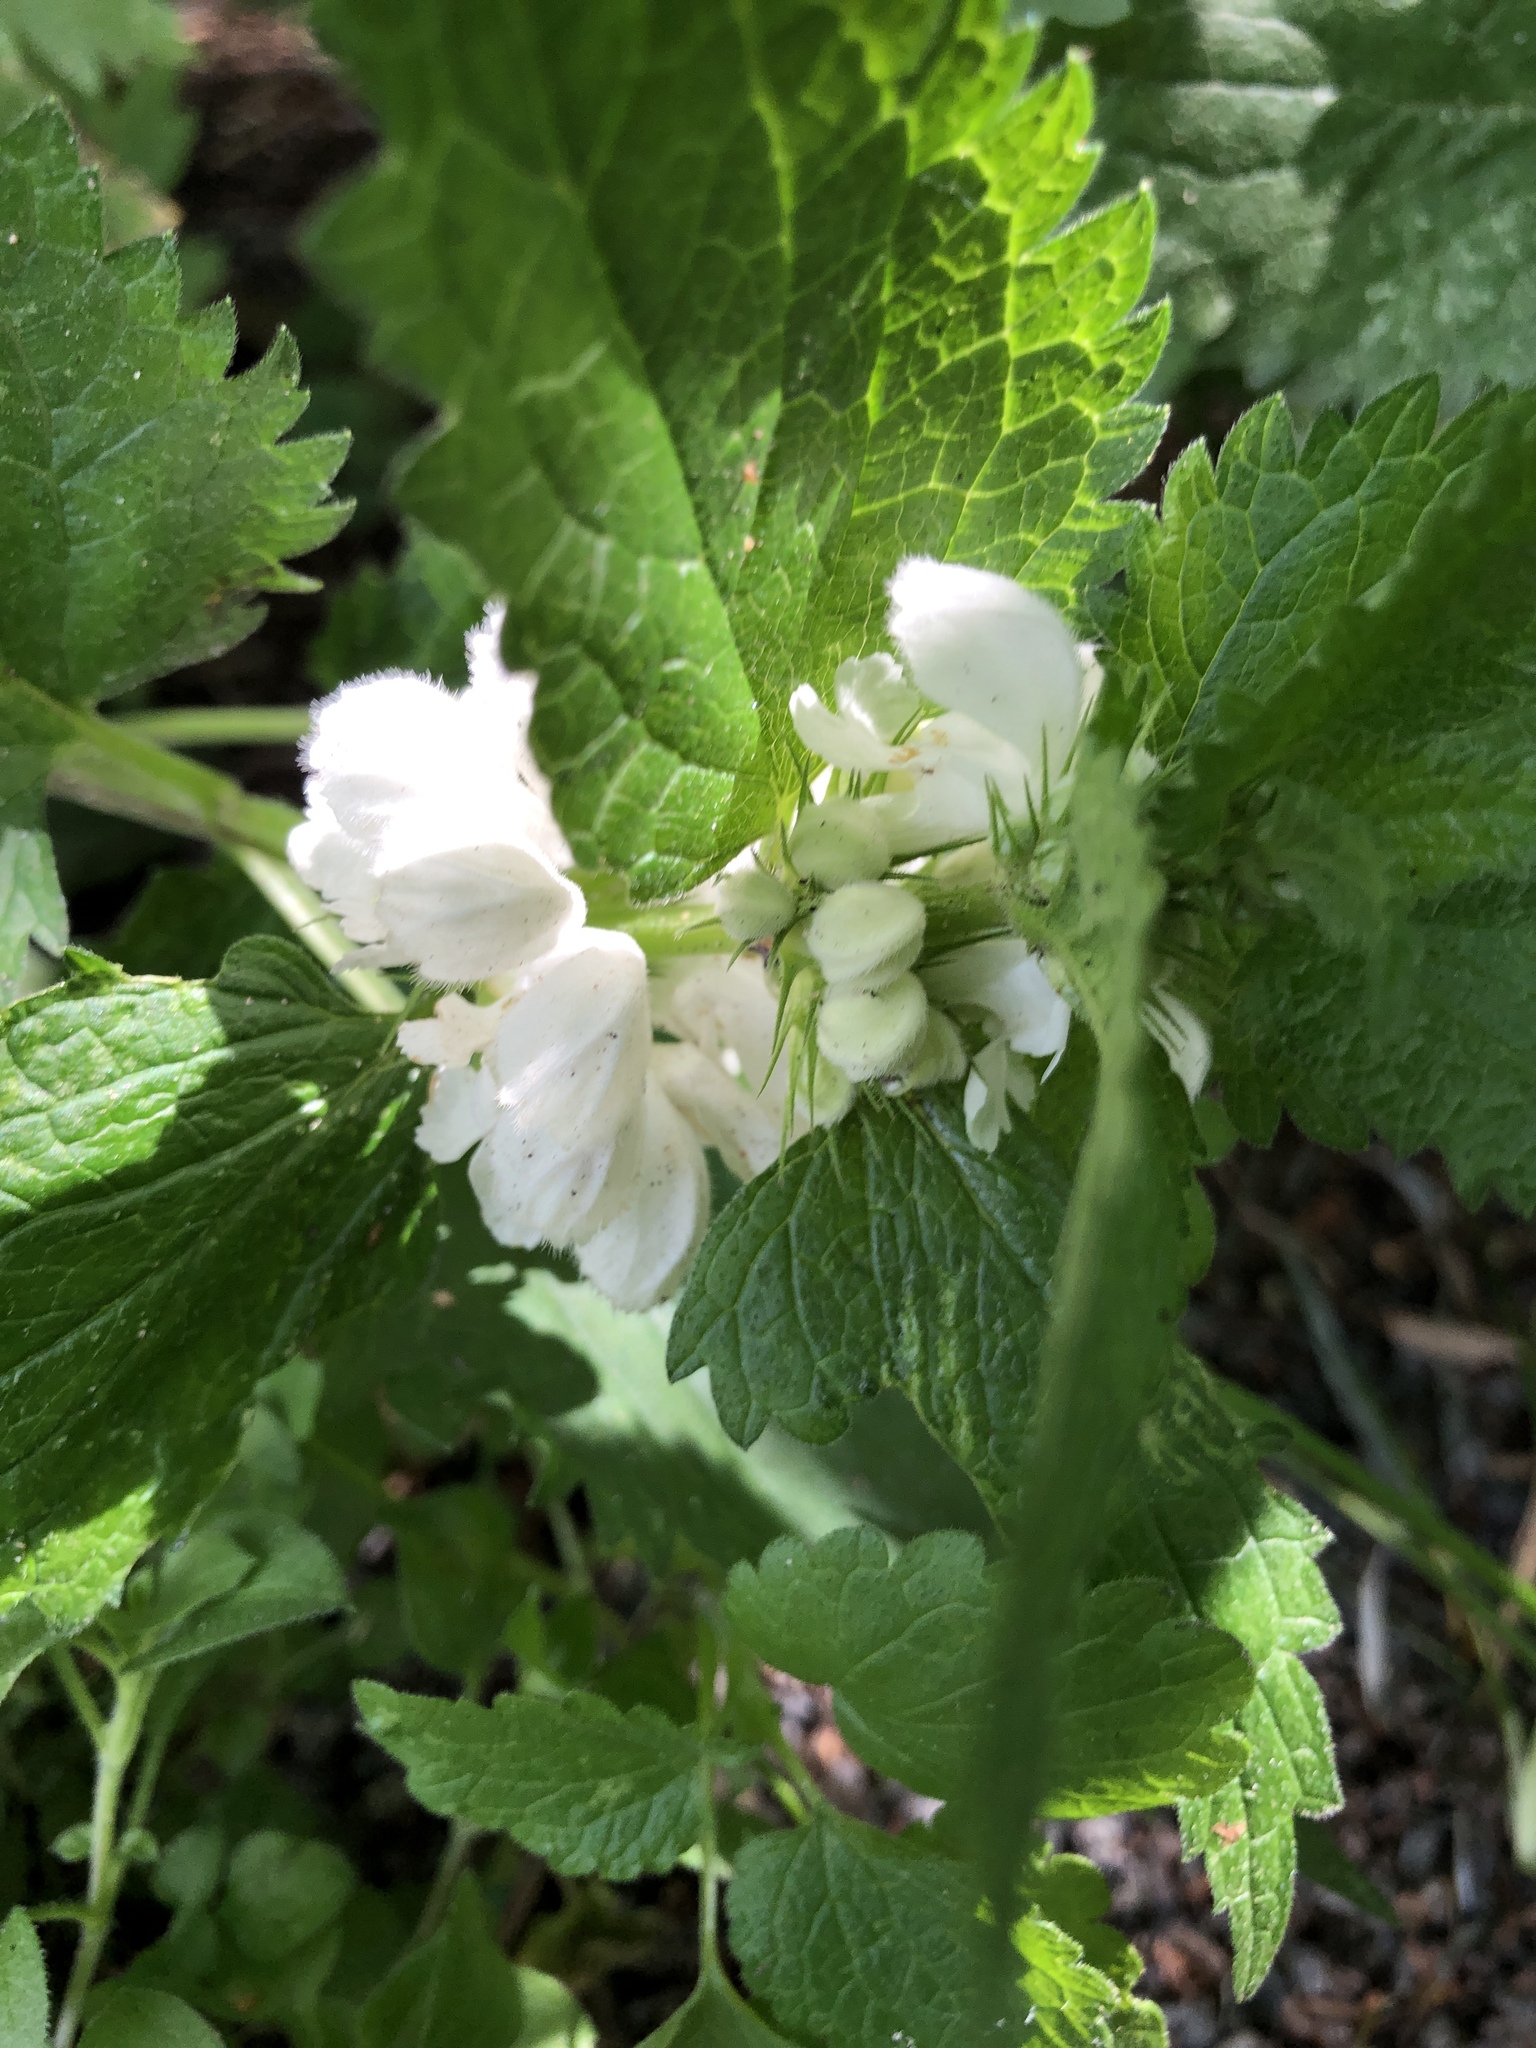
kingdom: Plantae
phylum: Tracheophyta
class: Magnoliopsida
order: Lamiales
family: Lamiaceae
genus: Lamium
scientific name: Lamium album
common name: White dead-nettle
